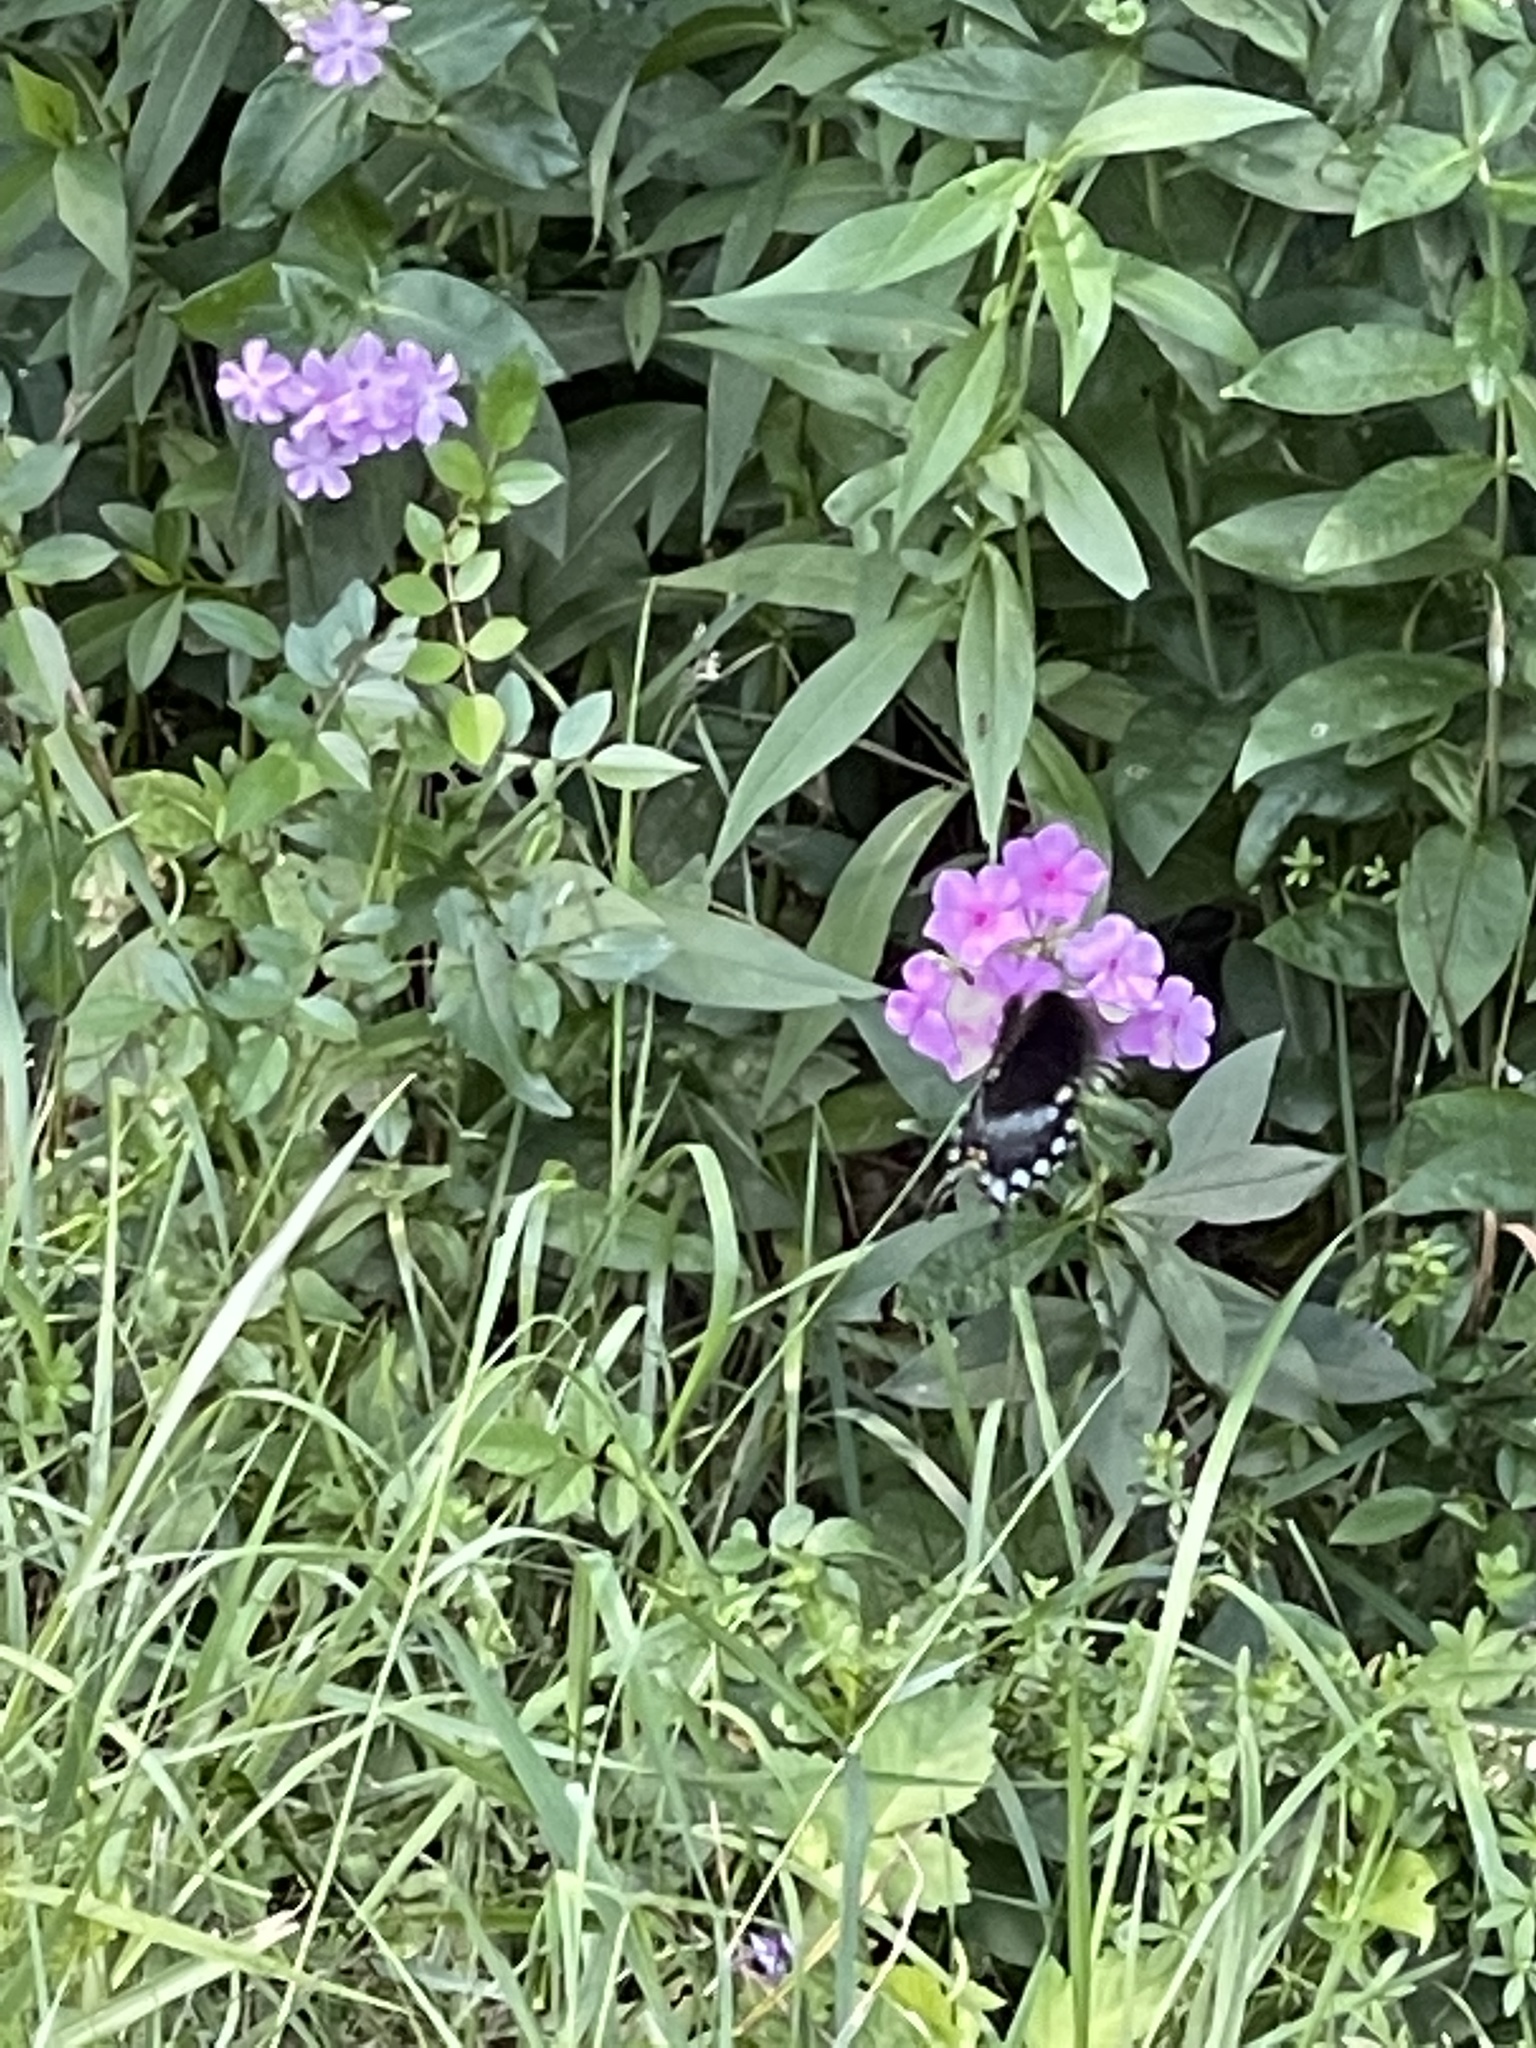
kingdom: Animalia
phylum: Arthropoda
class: Insecta
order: Lepidoptera
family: Papilionidae
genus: Papilio
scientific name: Papilio troilus
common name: Spicebush swallowtail
